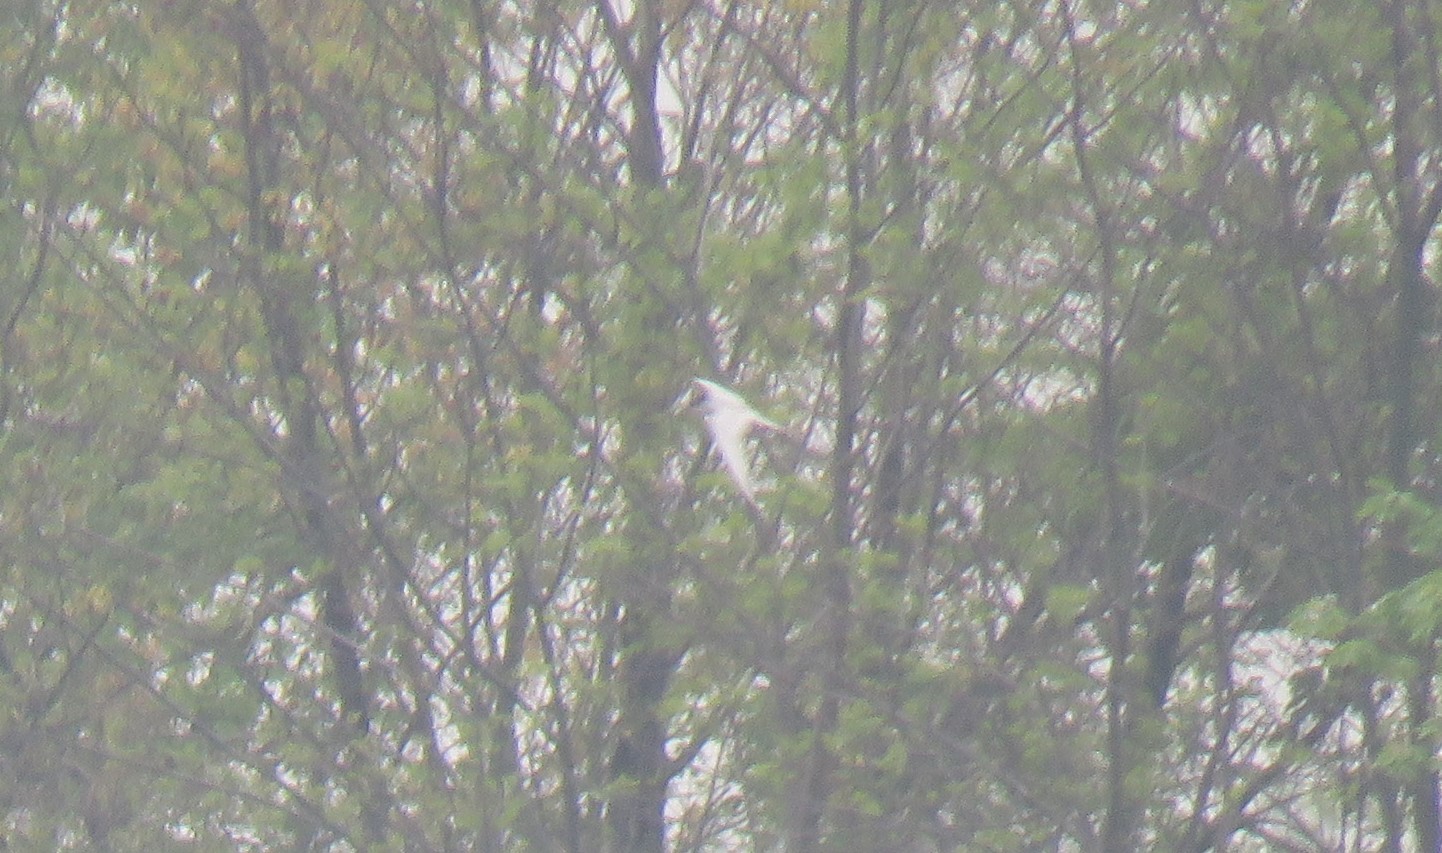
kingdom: Animalia
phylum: Chordata
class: Aves
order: Charadriiformes
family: Laridae
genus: Sterna
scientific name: Sterna forsteri
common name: Forster's tern
